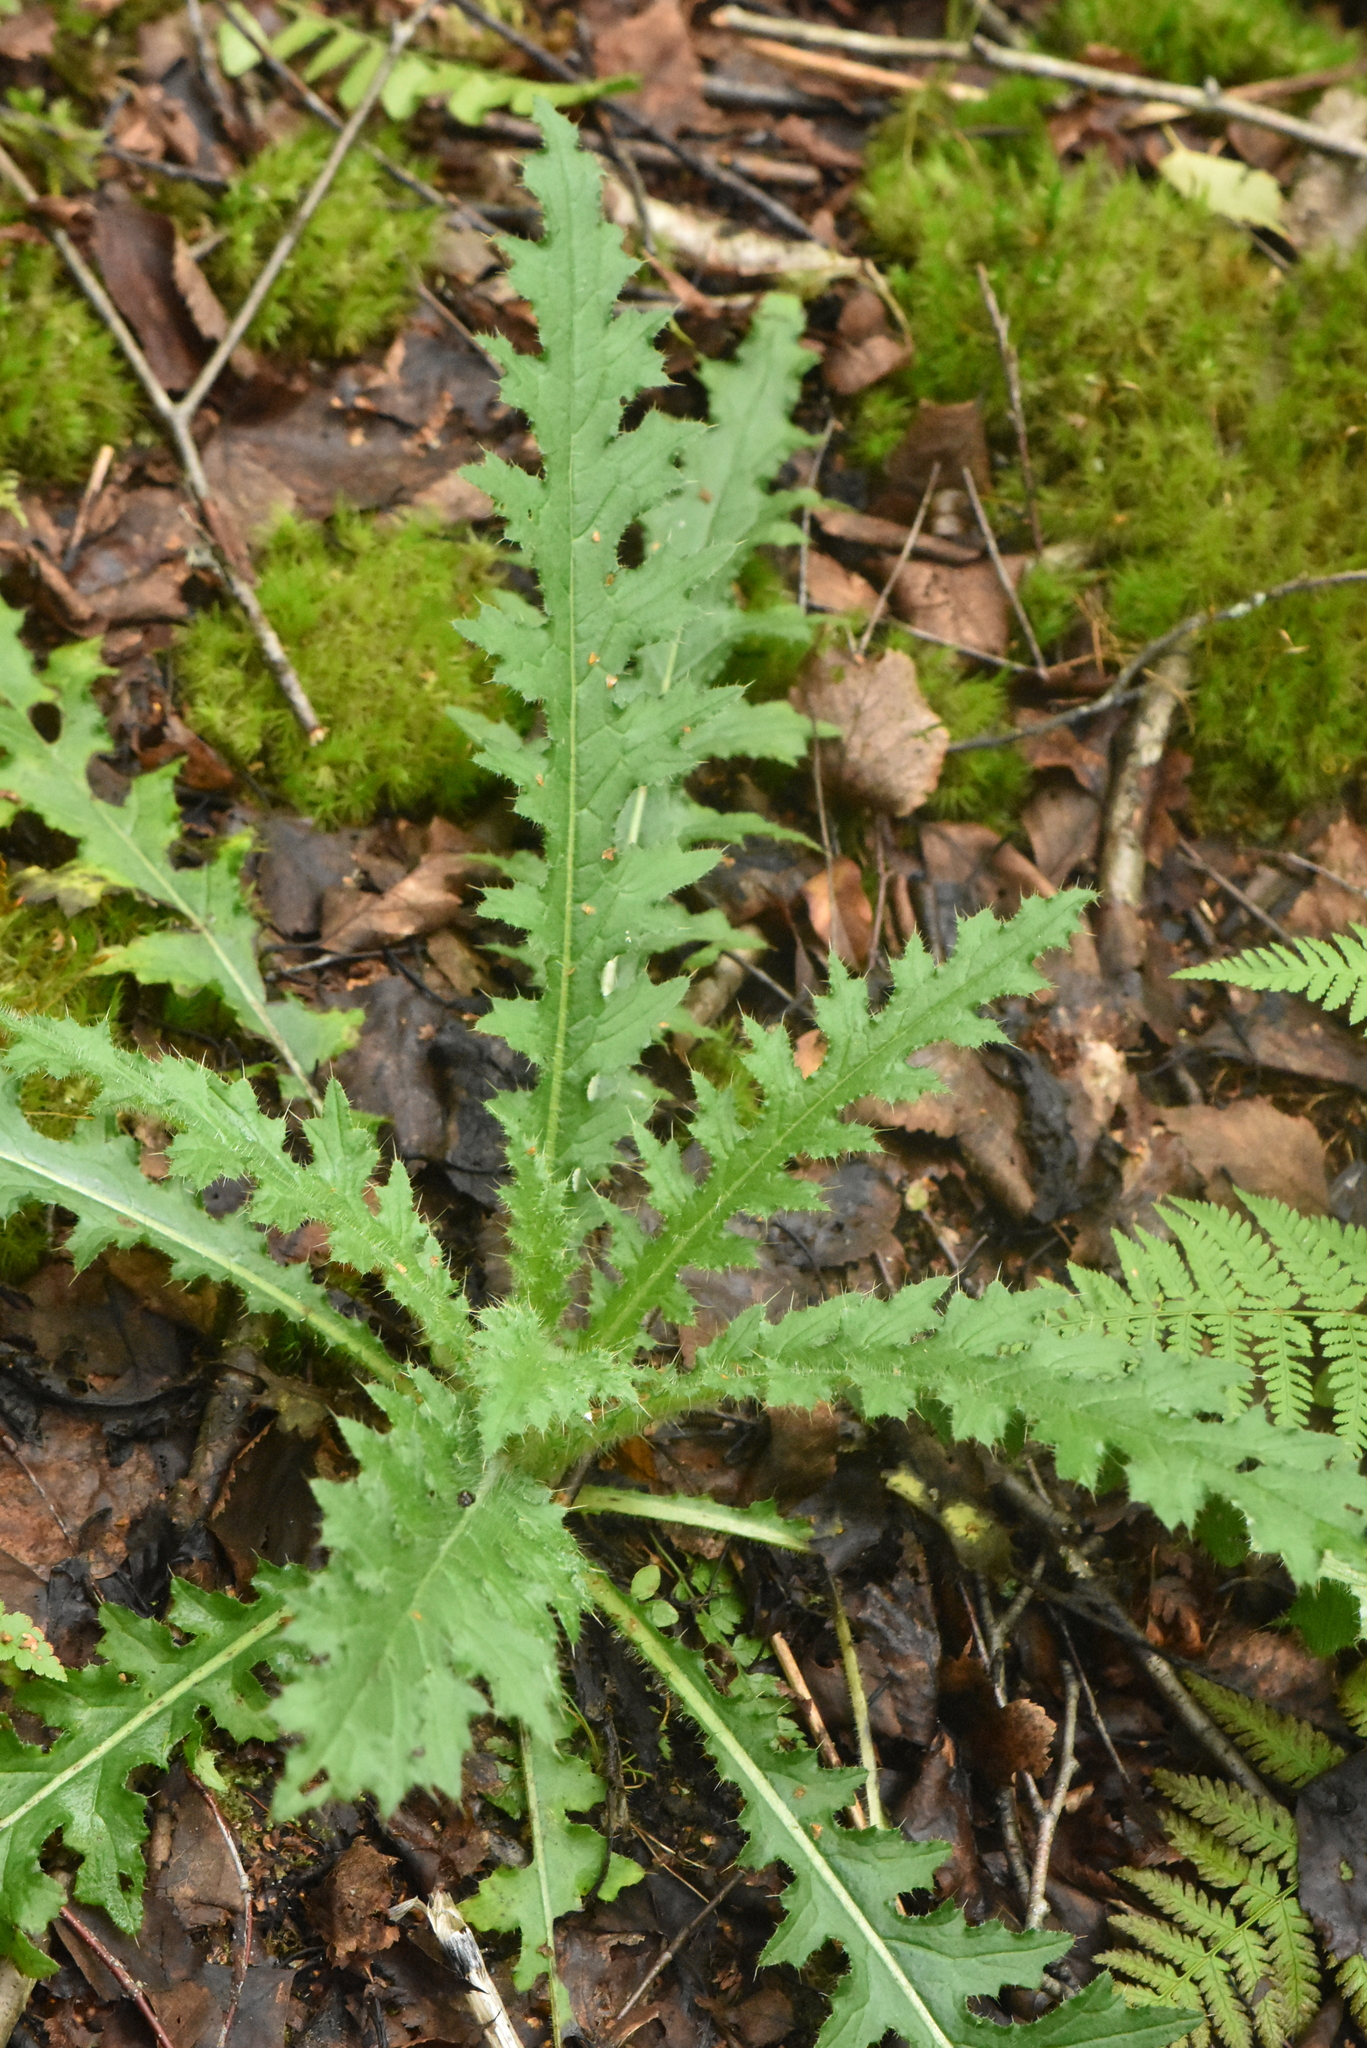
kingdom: Plantae
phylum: Tracheophyta
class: Magnoliopsida
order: Asterales
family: Asteraceae
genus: Cirsium
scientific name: Cirsium palustre
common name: Marsh thistle
